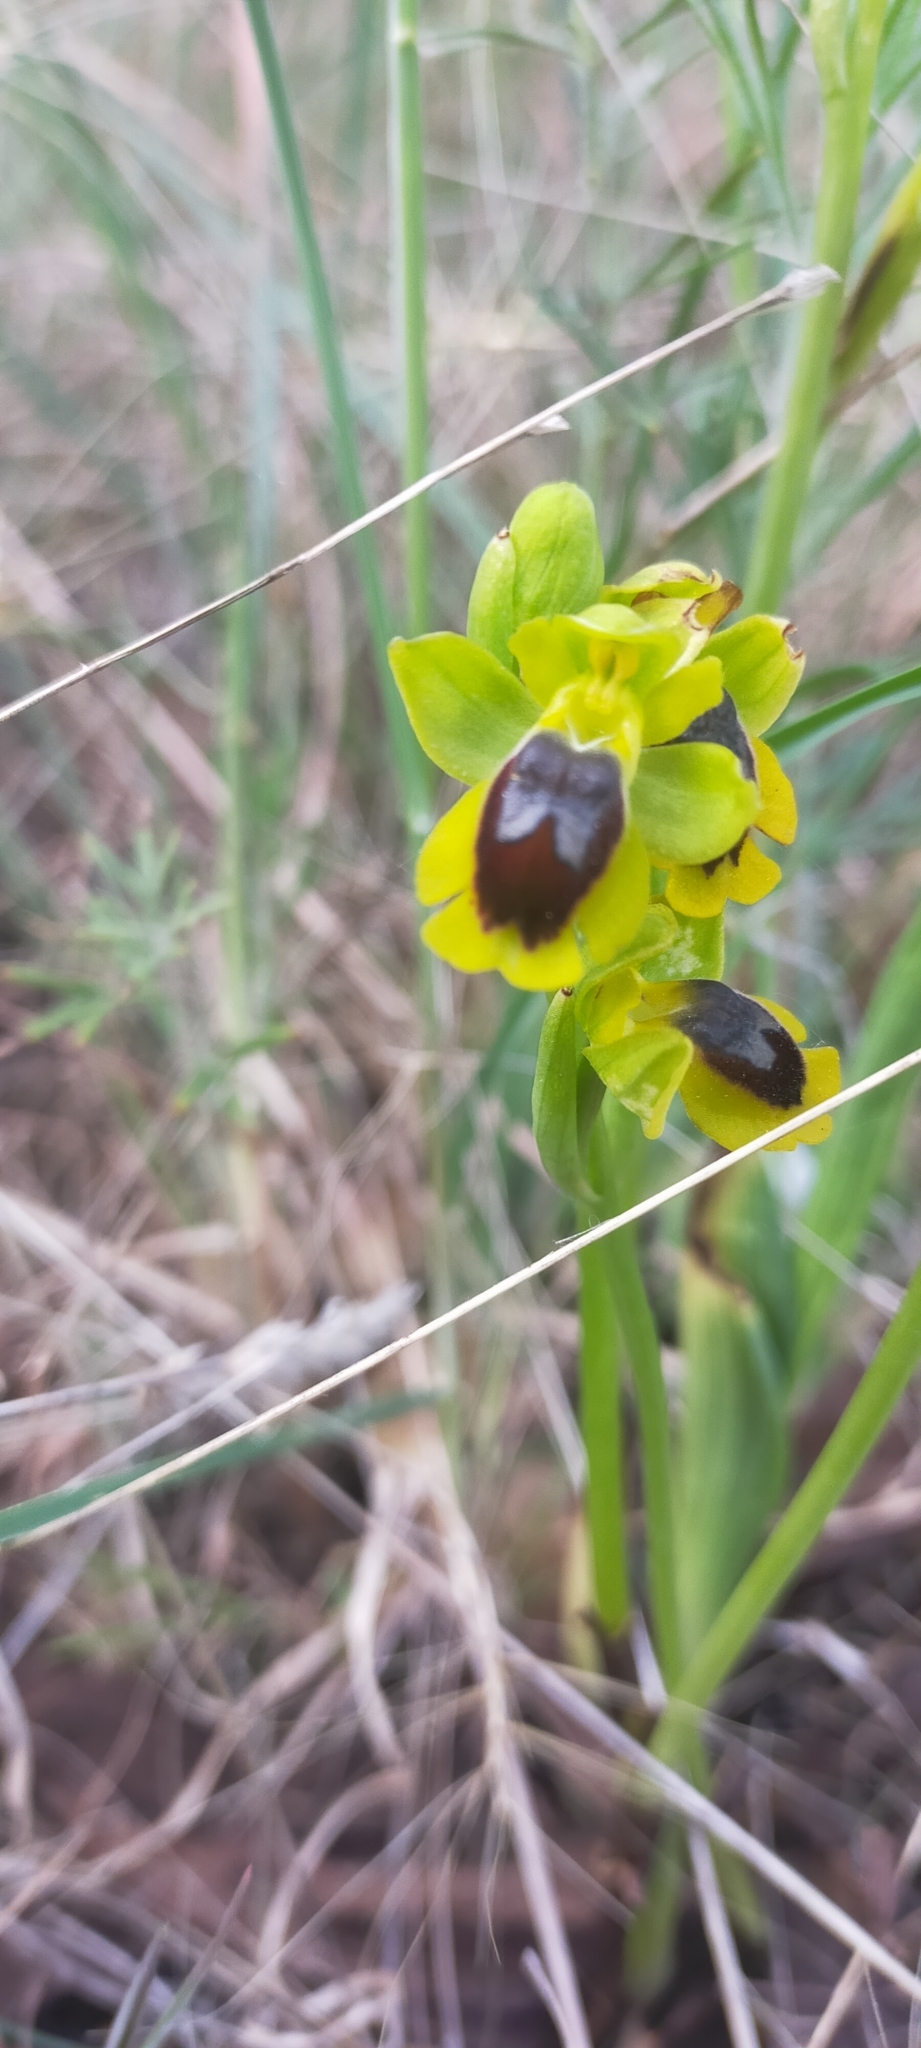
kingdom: Plantae
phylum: Tracheophyta
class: Liliopsida
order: Asparagales
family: Orchidaceae
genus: Ophrys
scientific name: Ophrys lutea
